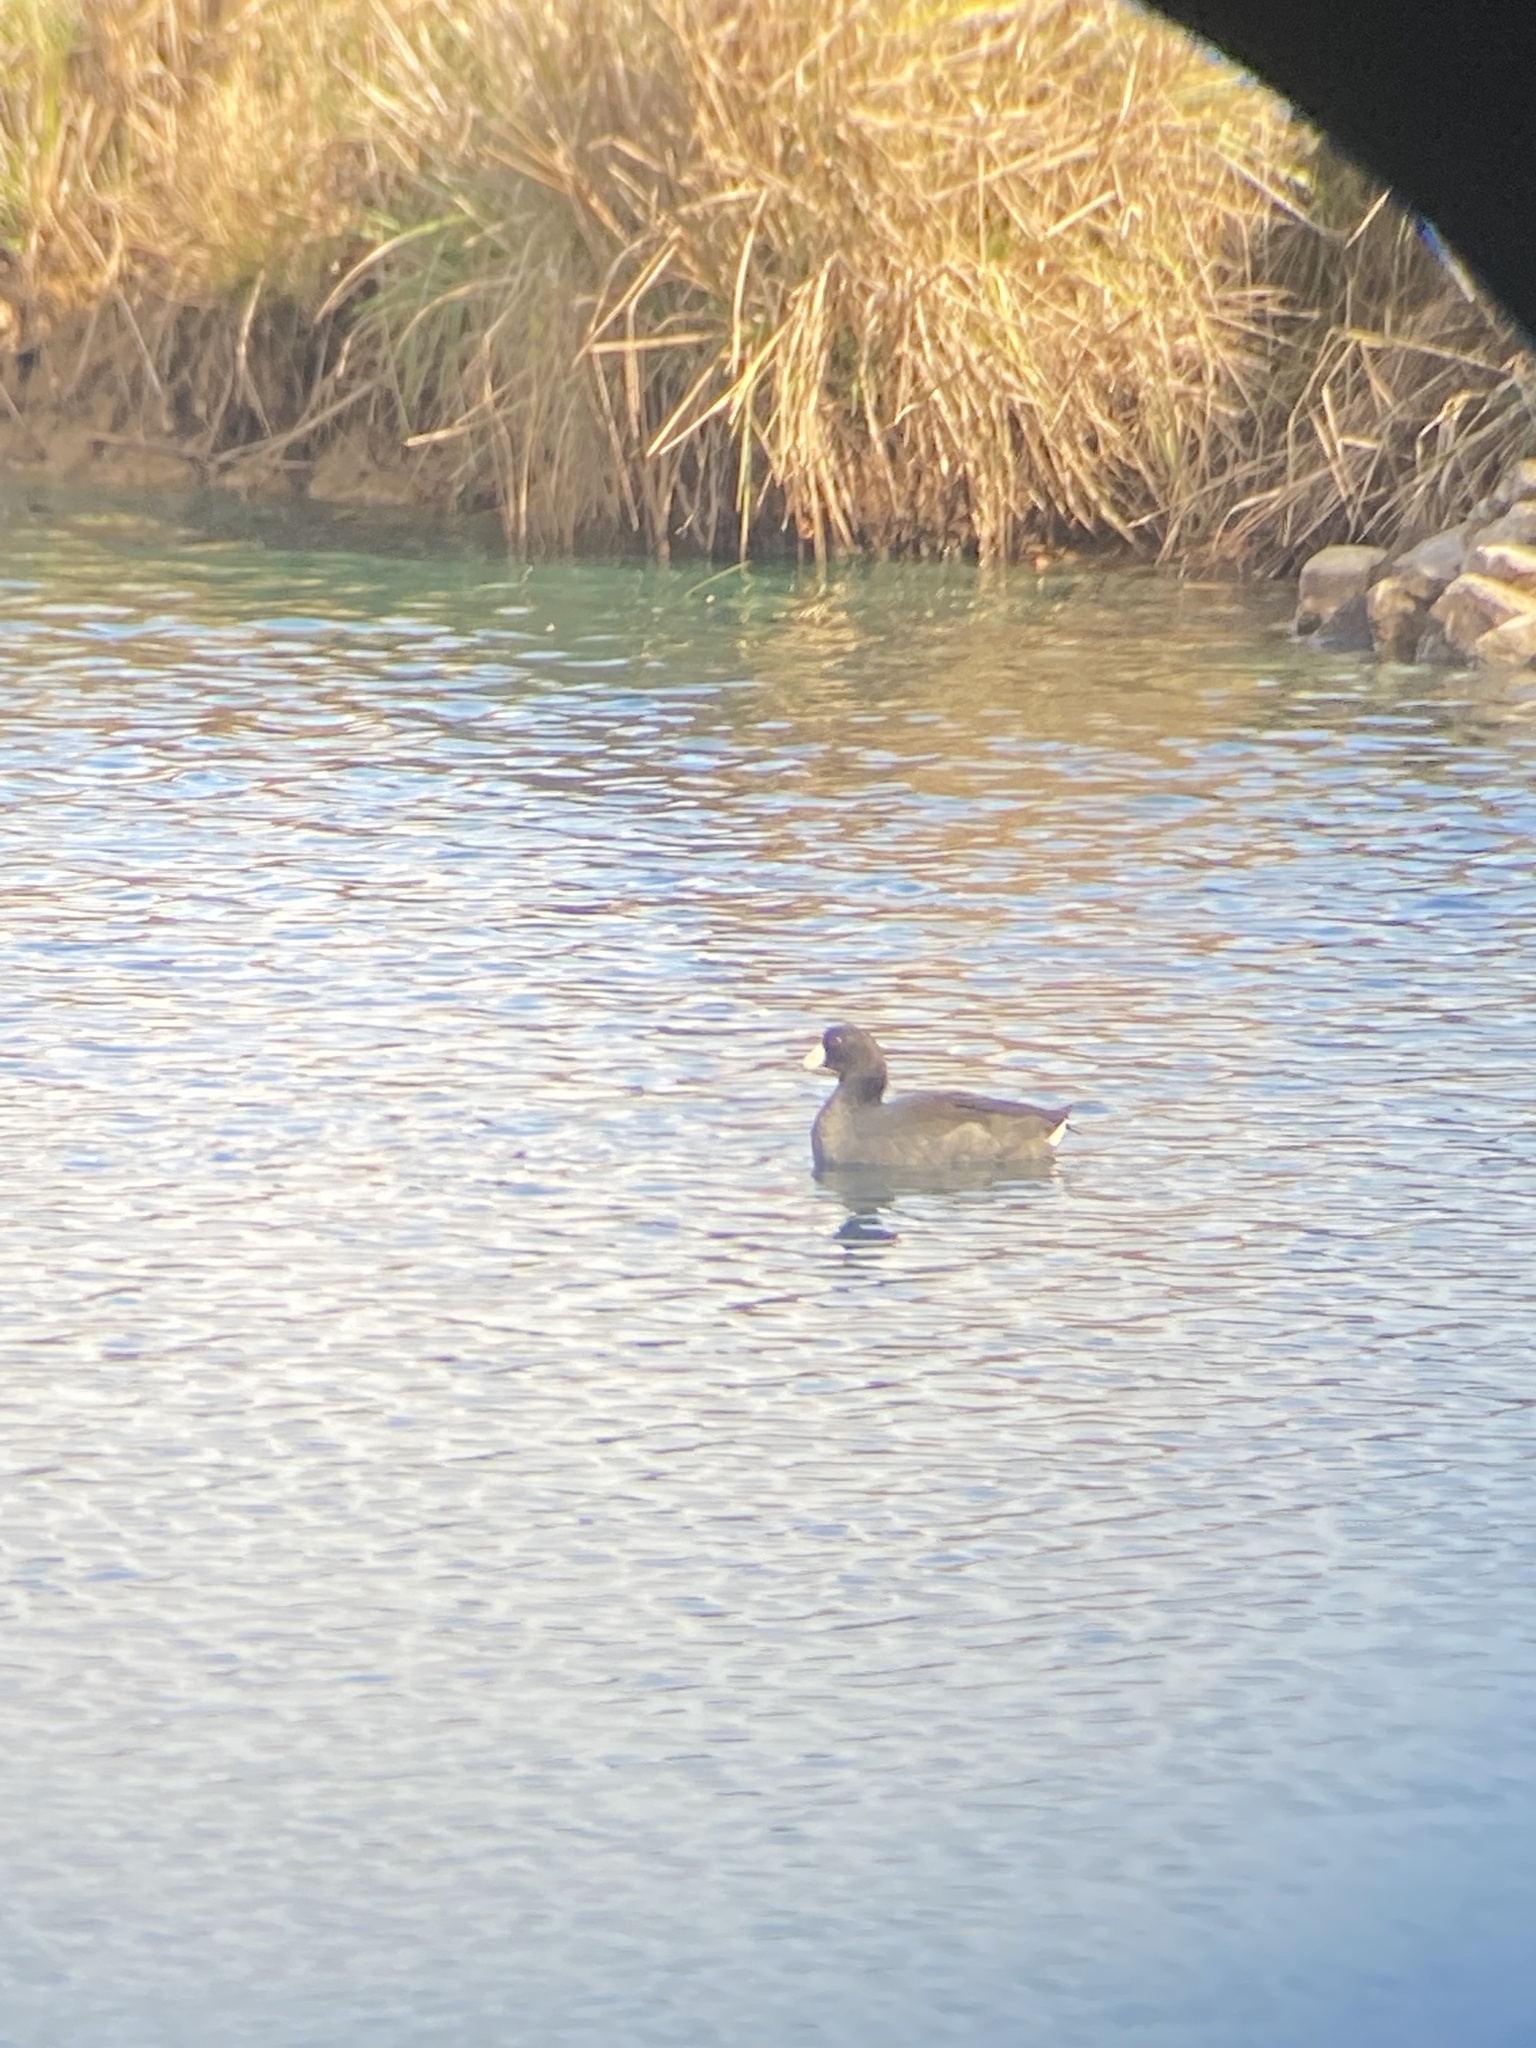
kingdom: Animalia
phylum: Chordata
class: Aves
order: Gruiformes
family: Rallidae
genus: Fulica
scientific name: Fulica americana
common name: American coot
